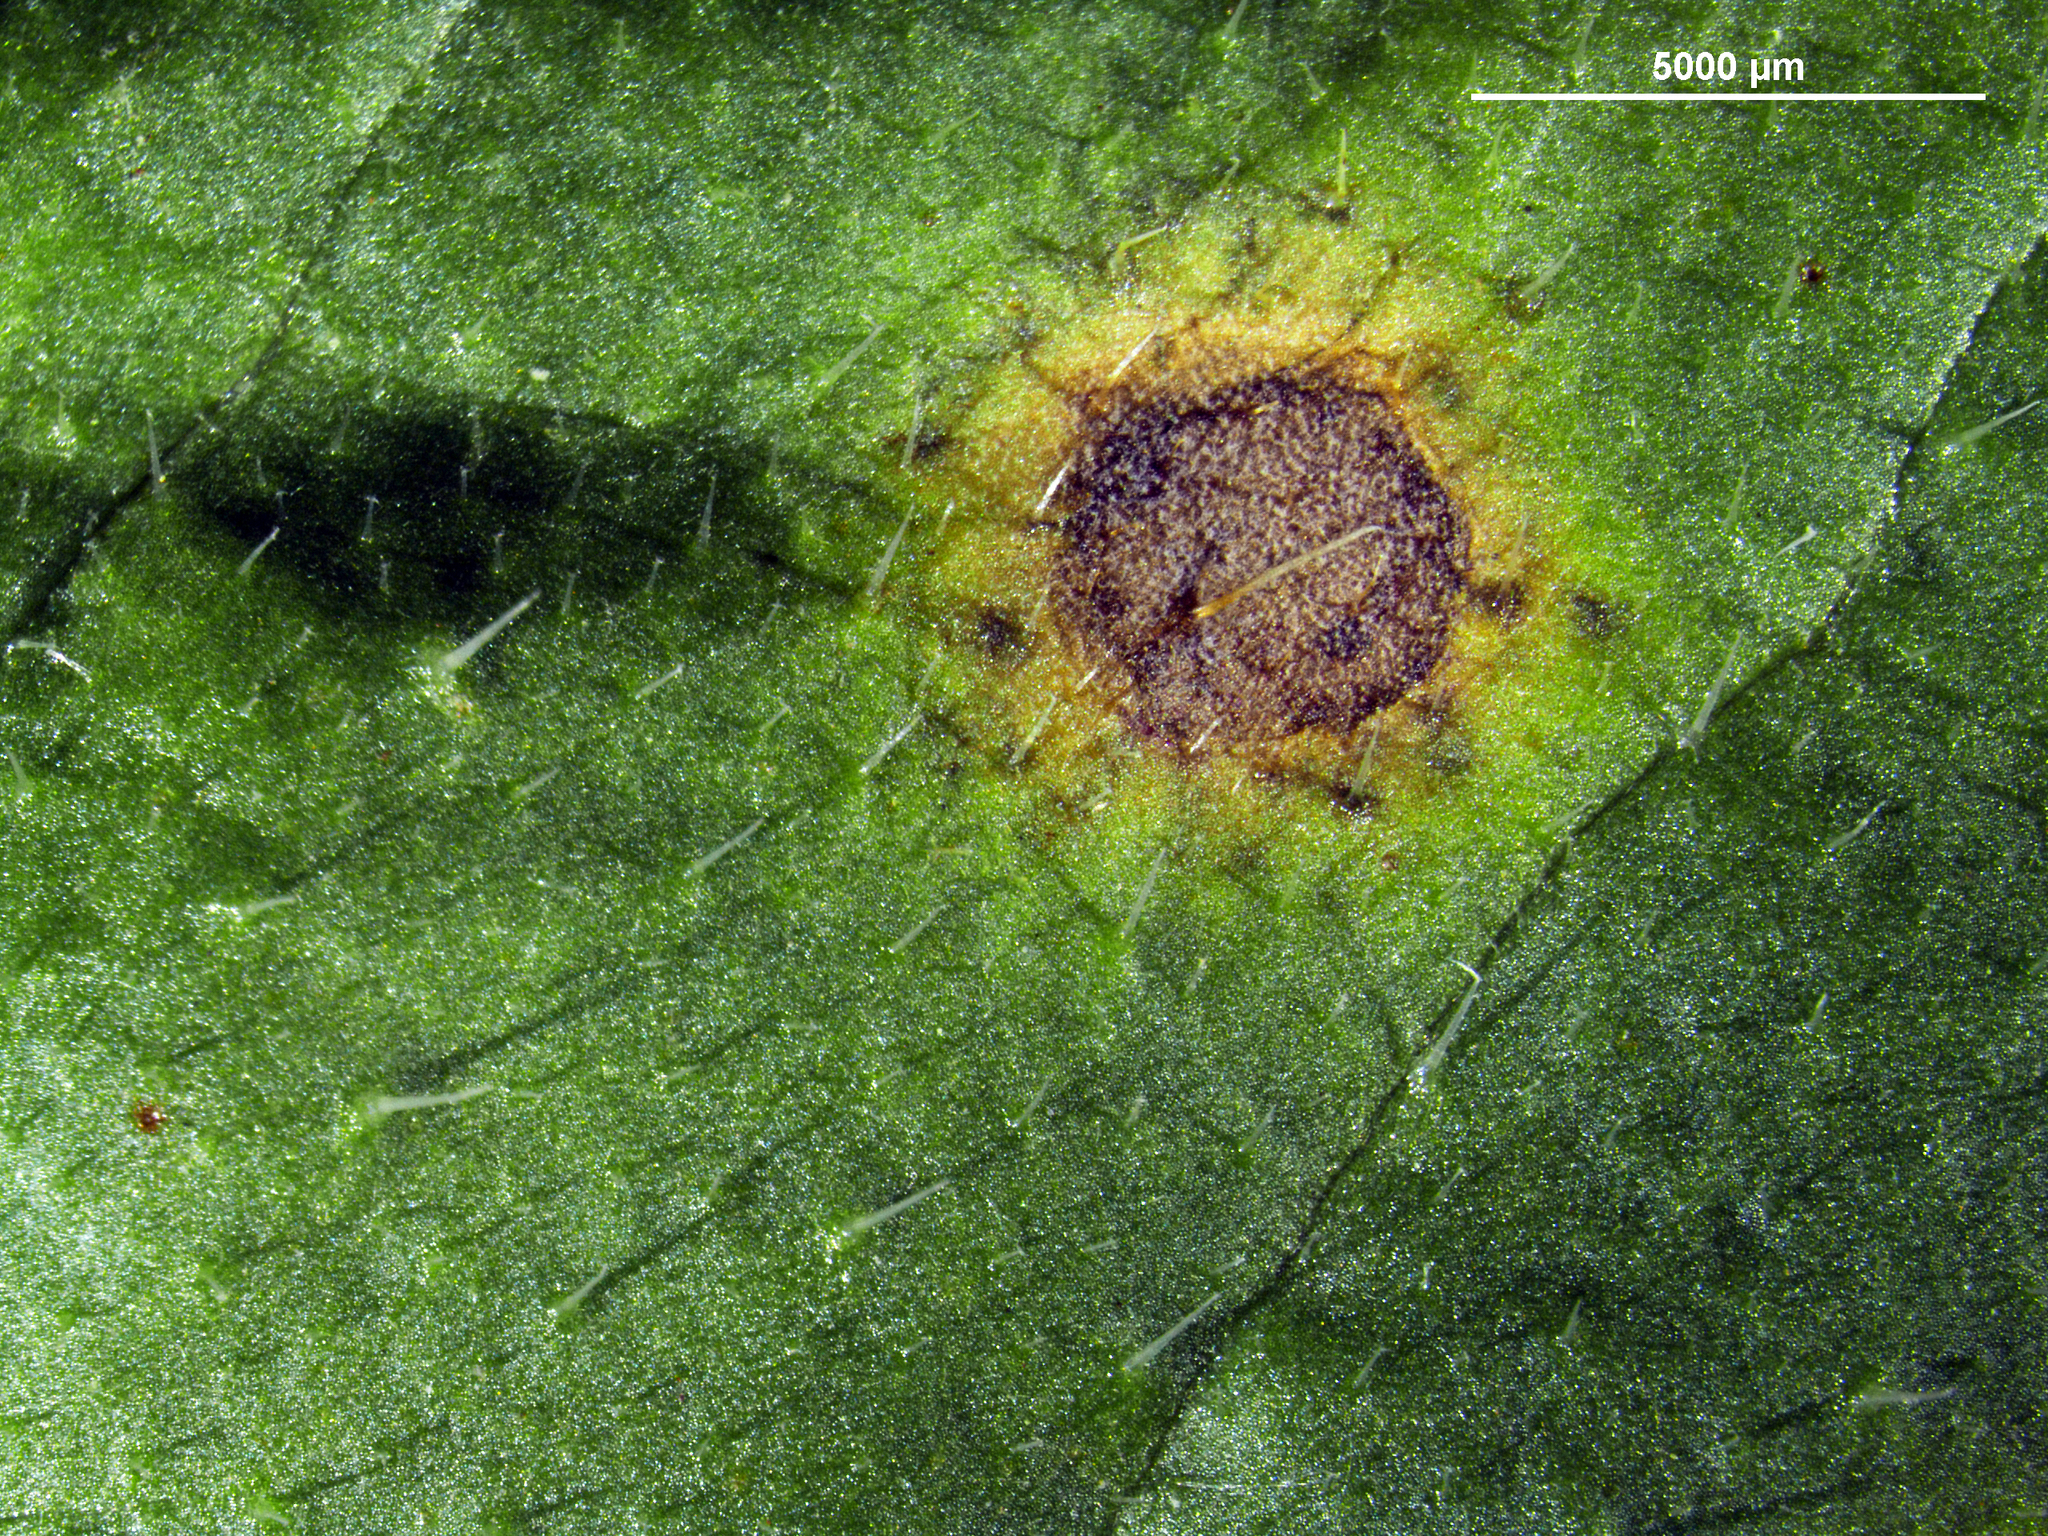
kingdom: Fungi
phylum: Ascomycota
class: Dothideomycetes
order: Capnodiales
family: Mycosphaerellaceae
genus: Ramularia
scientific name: Ramularia helminthiae
